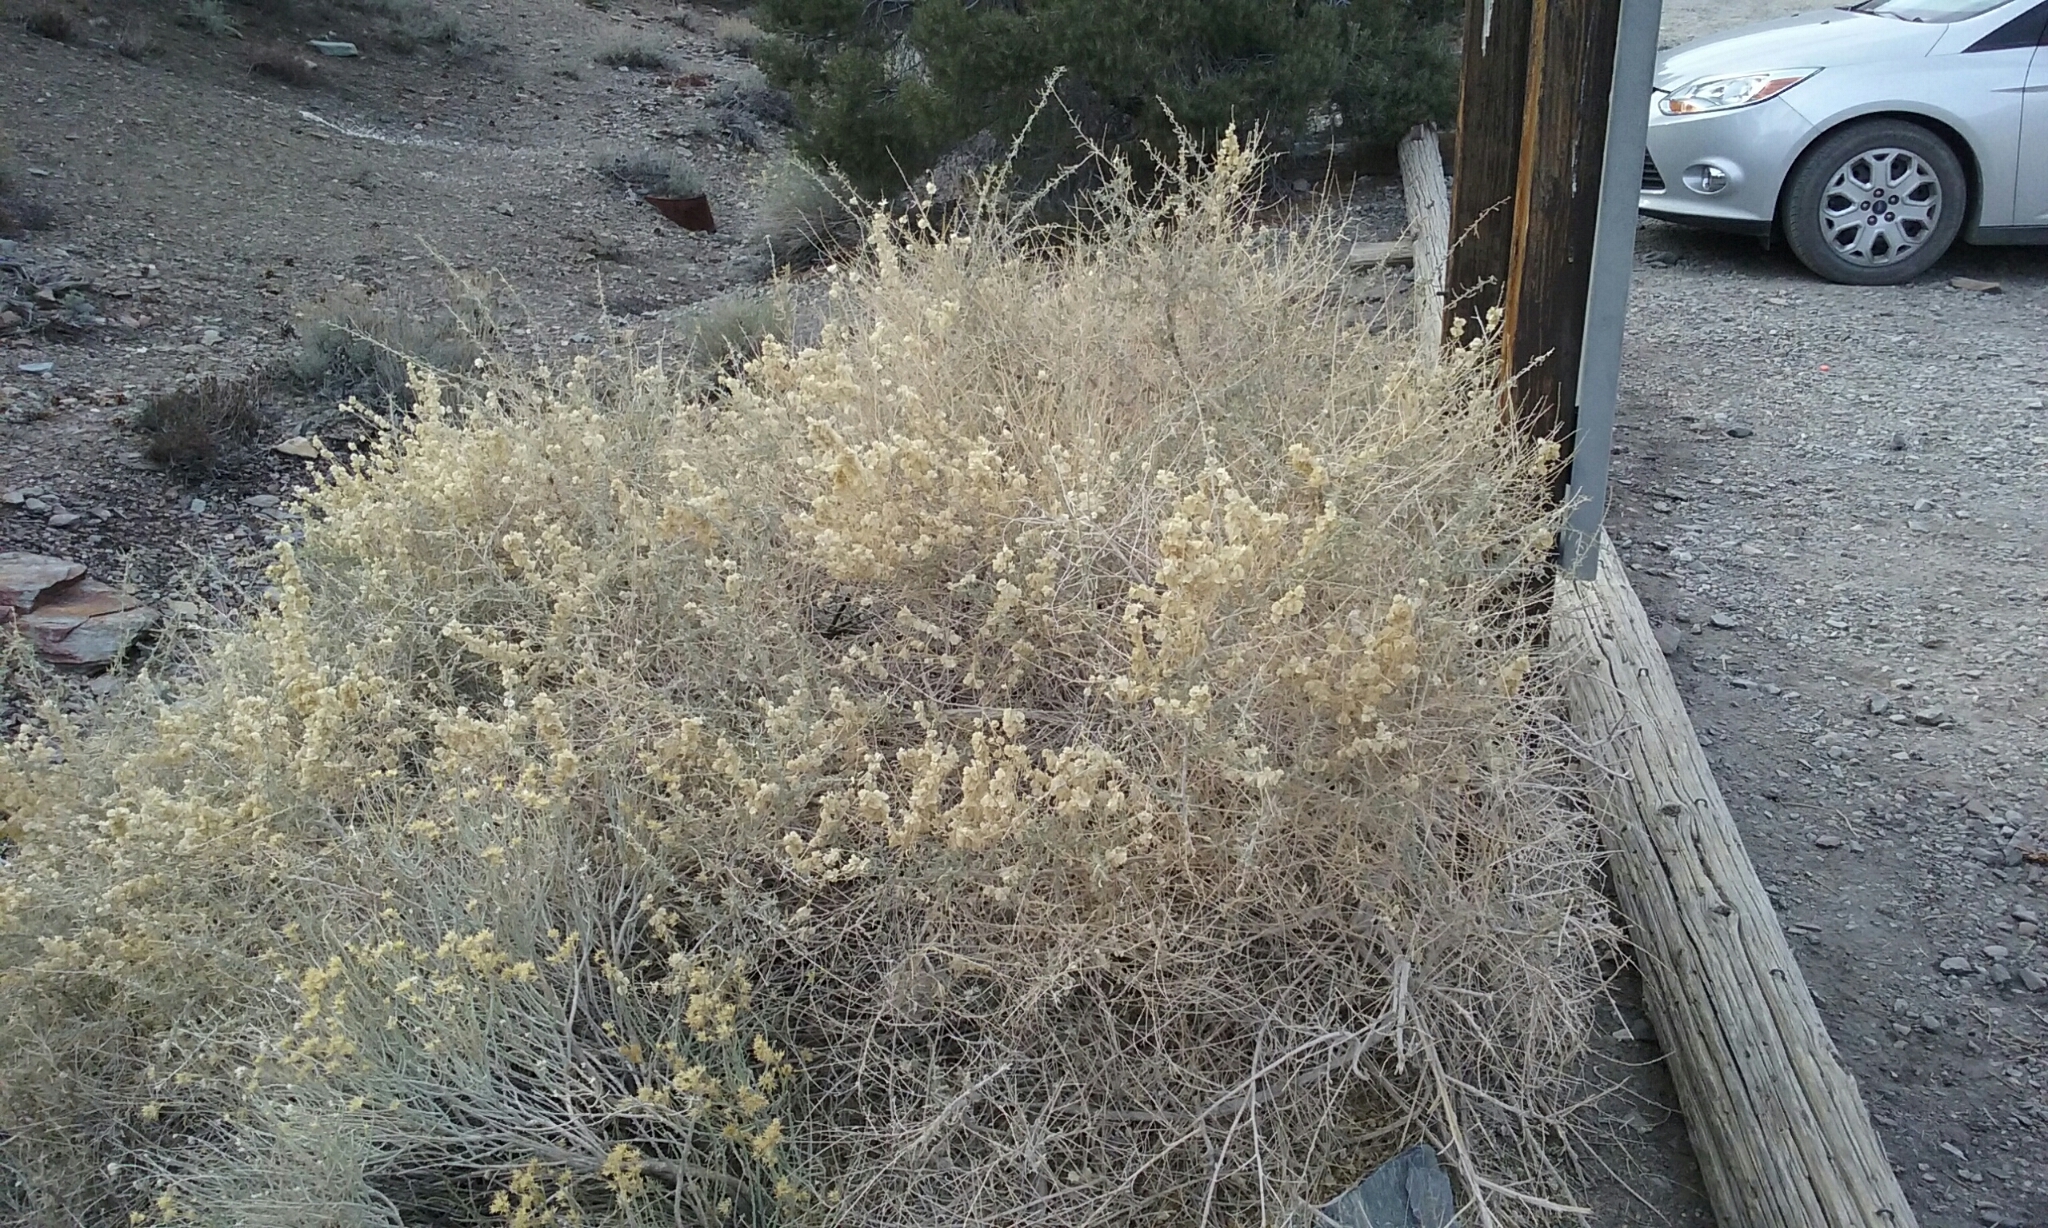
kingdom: Plantae
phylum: Tracheophyta
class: Magnoliopsida
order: Caryophyllales
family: Amaranthaceae
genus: Atriplex
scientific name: Atriplex canescens
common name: Four-wing saltbush
